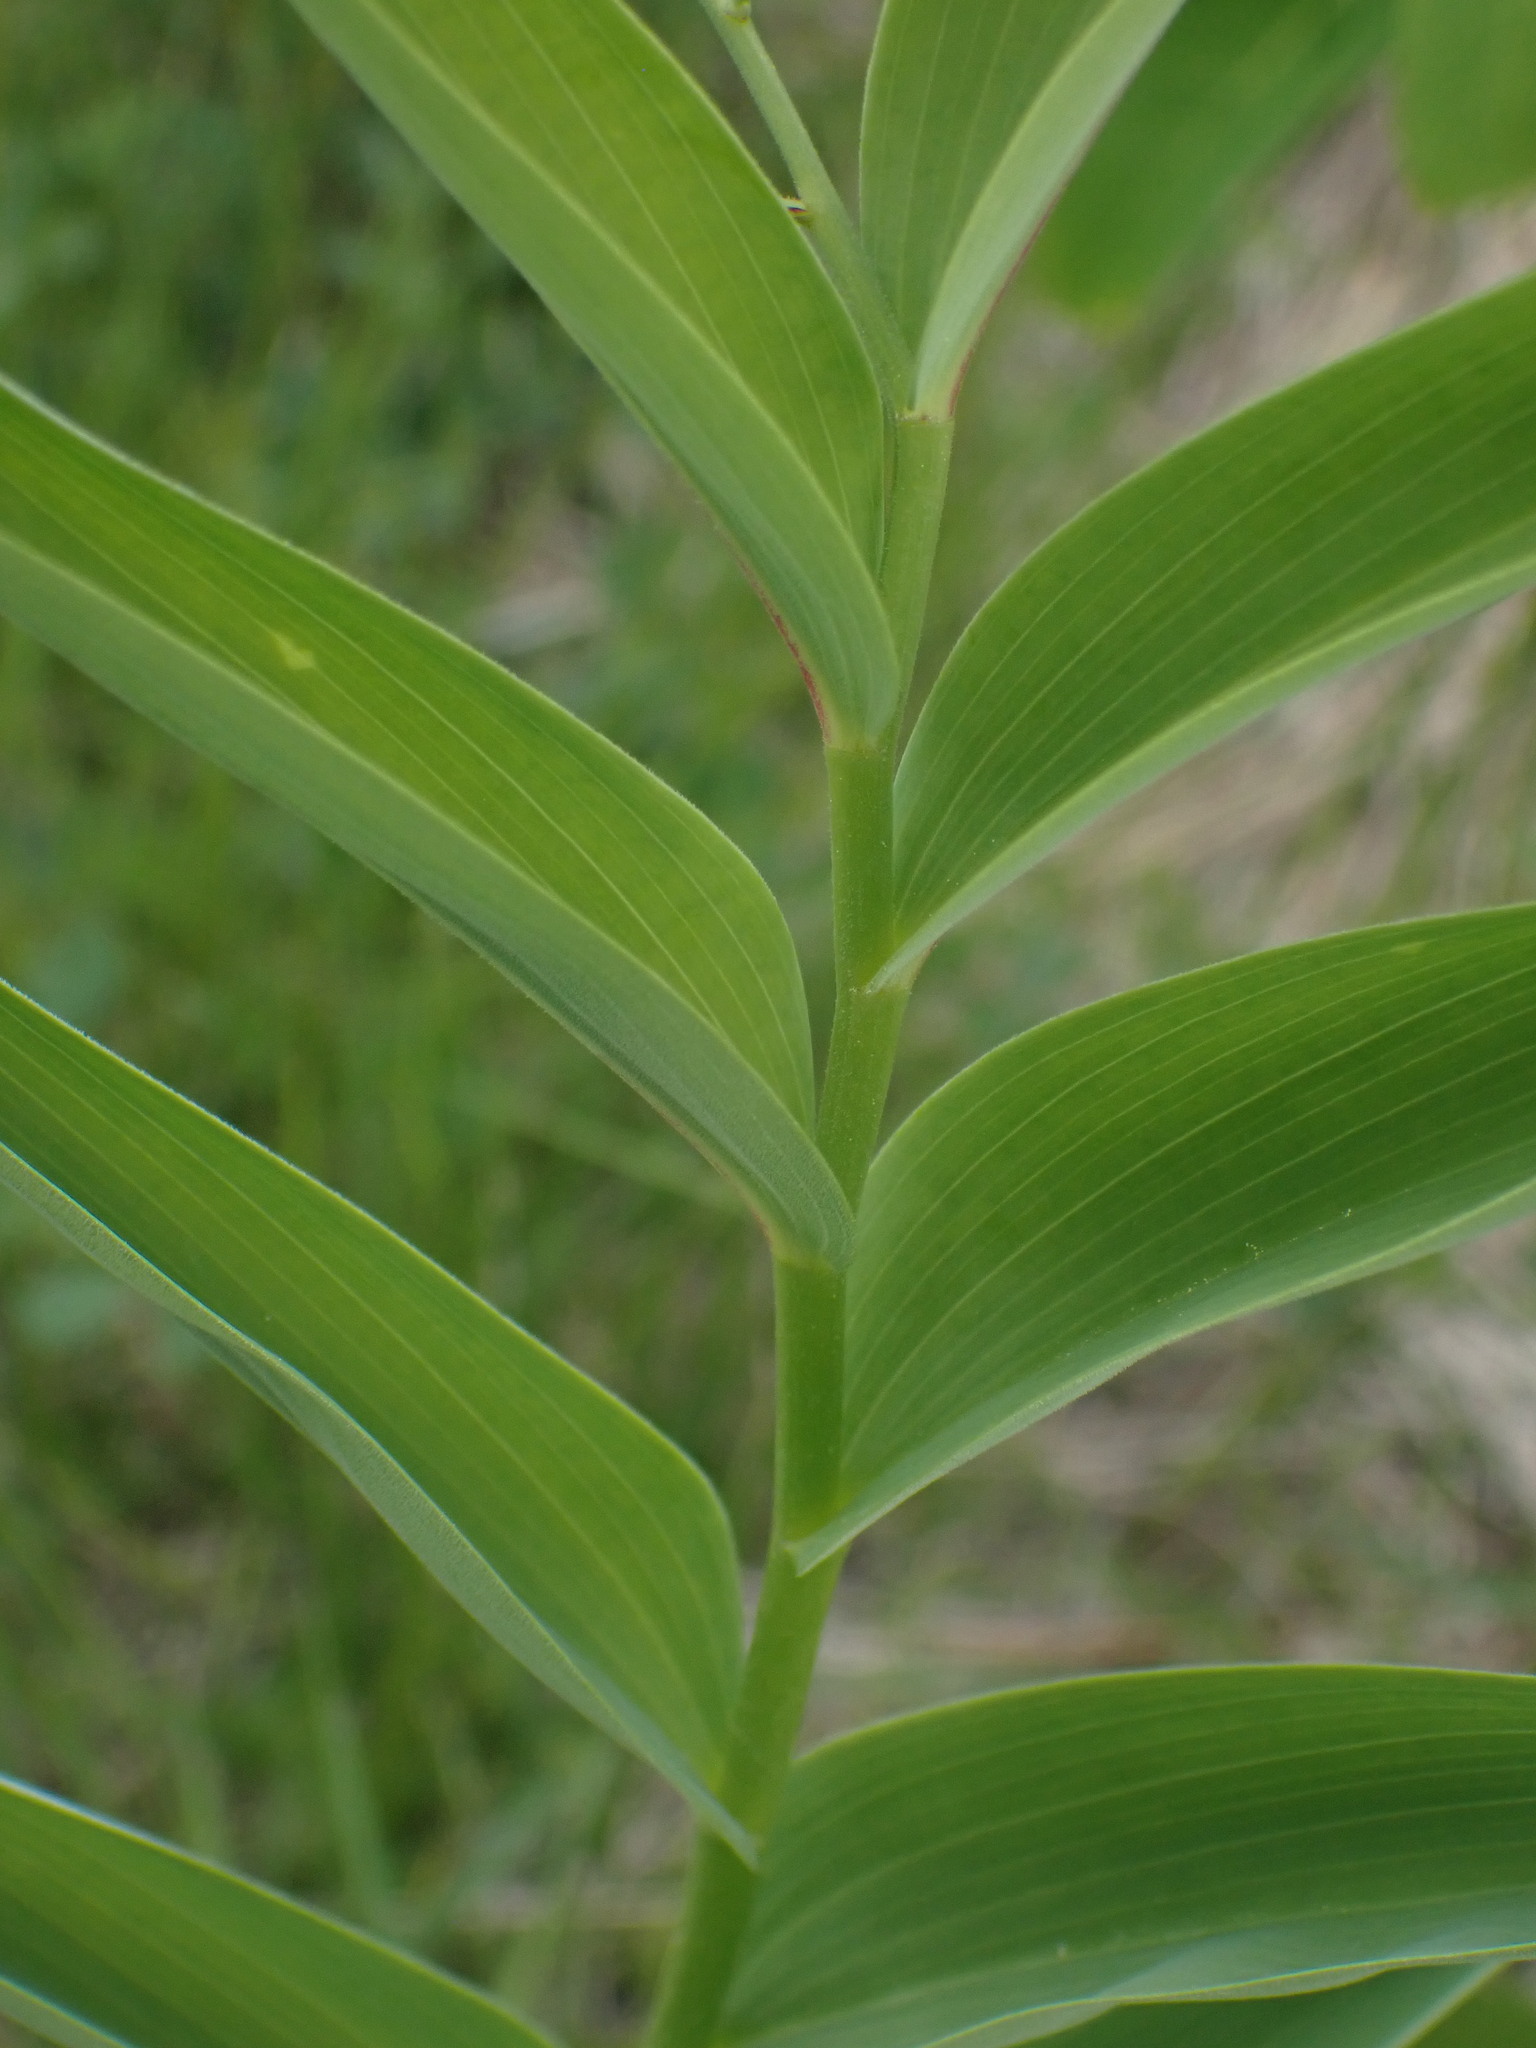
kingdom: Plantae
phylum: Tracheophyta
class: Liliopsida
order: Asparagales
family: Asparagaceae
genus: Maianthemum
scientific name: Maianthemum stellatum
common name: Little false solomon's seal
